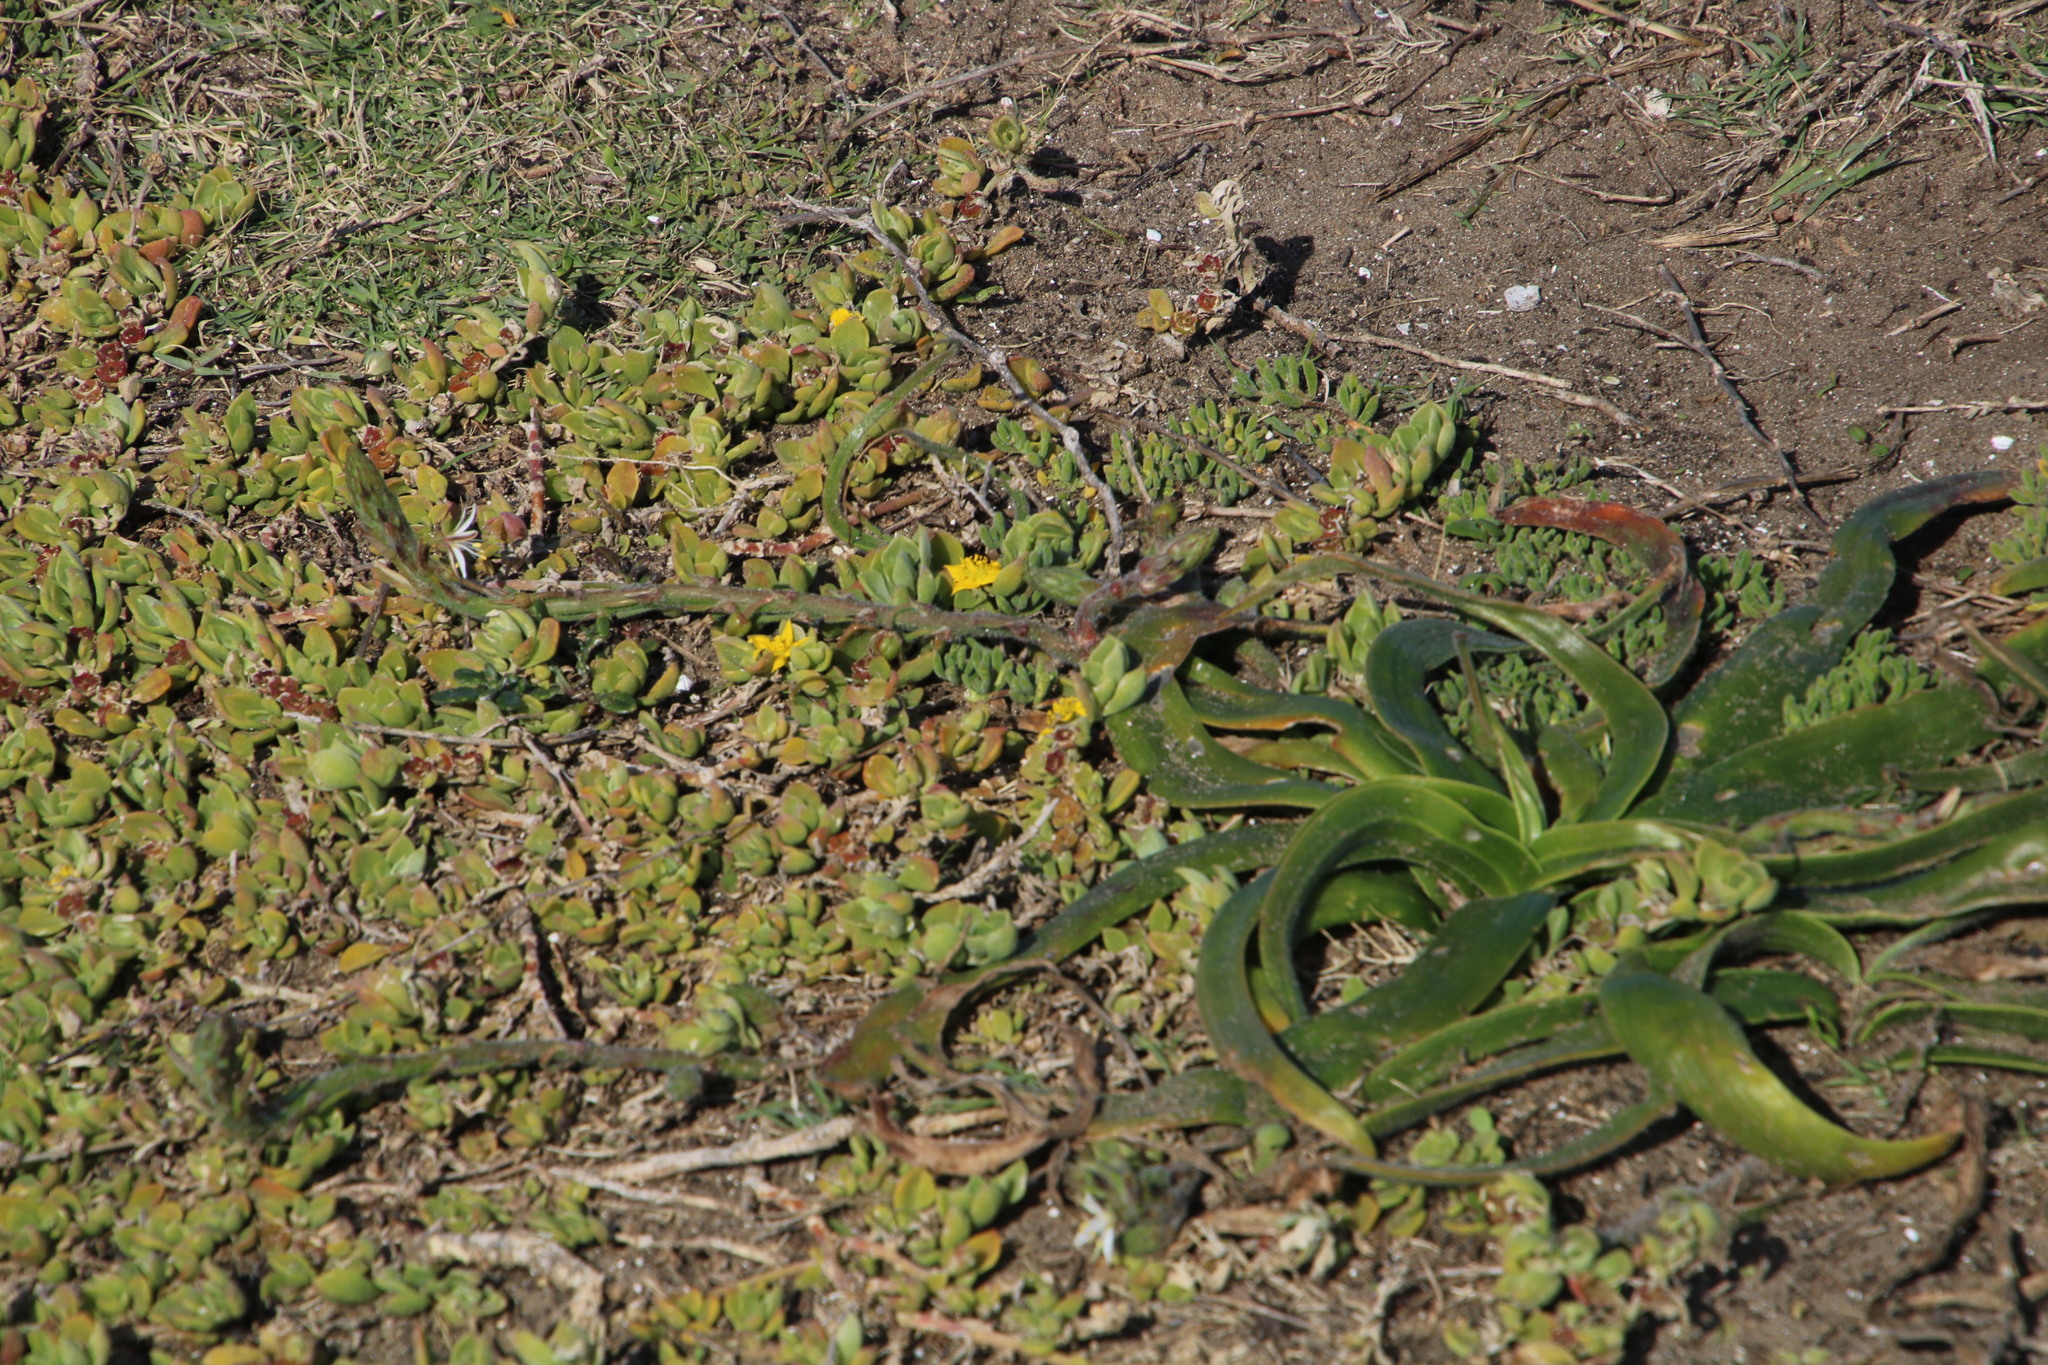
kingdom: Plantae
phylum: Tracheophyta
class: Liliopsida
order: Asparagales
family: Asphodelaceae
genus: Trachyandra
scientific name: Trachyandra divaricata
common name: Dune onionweed
